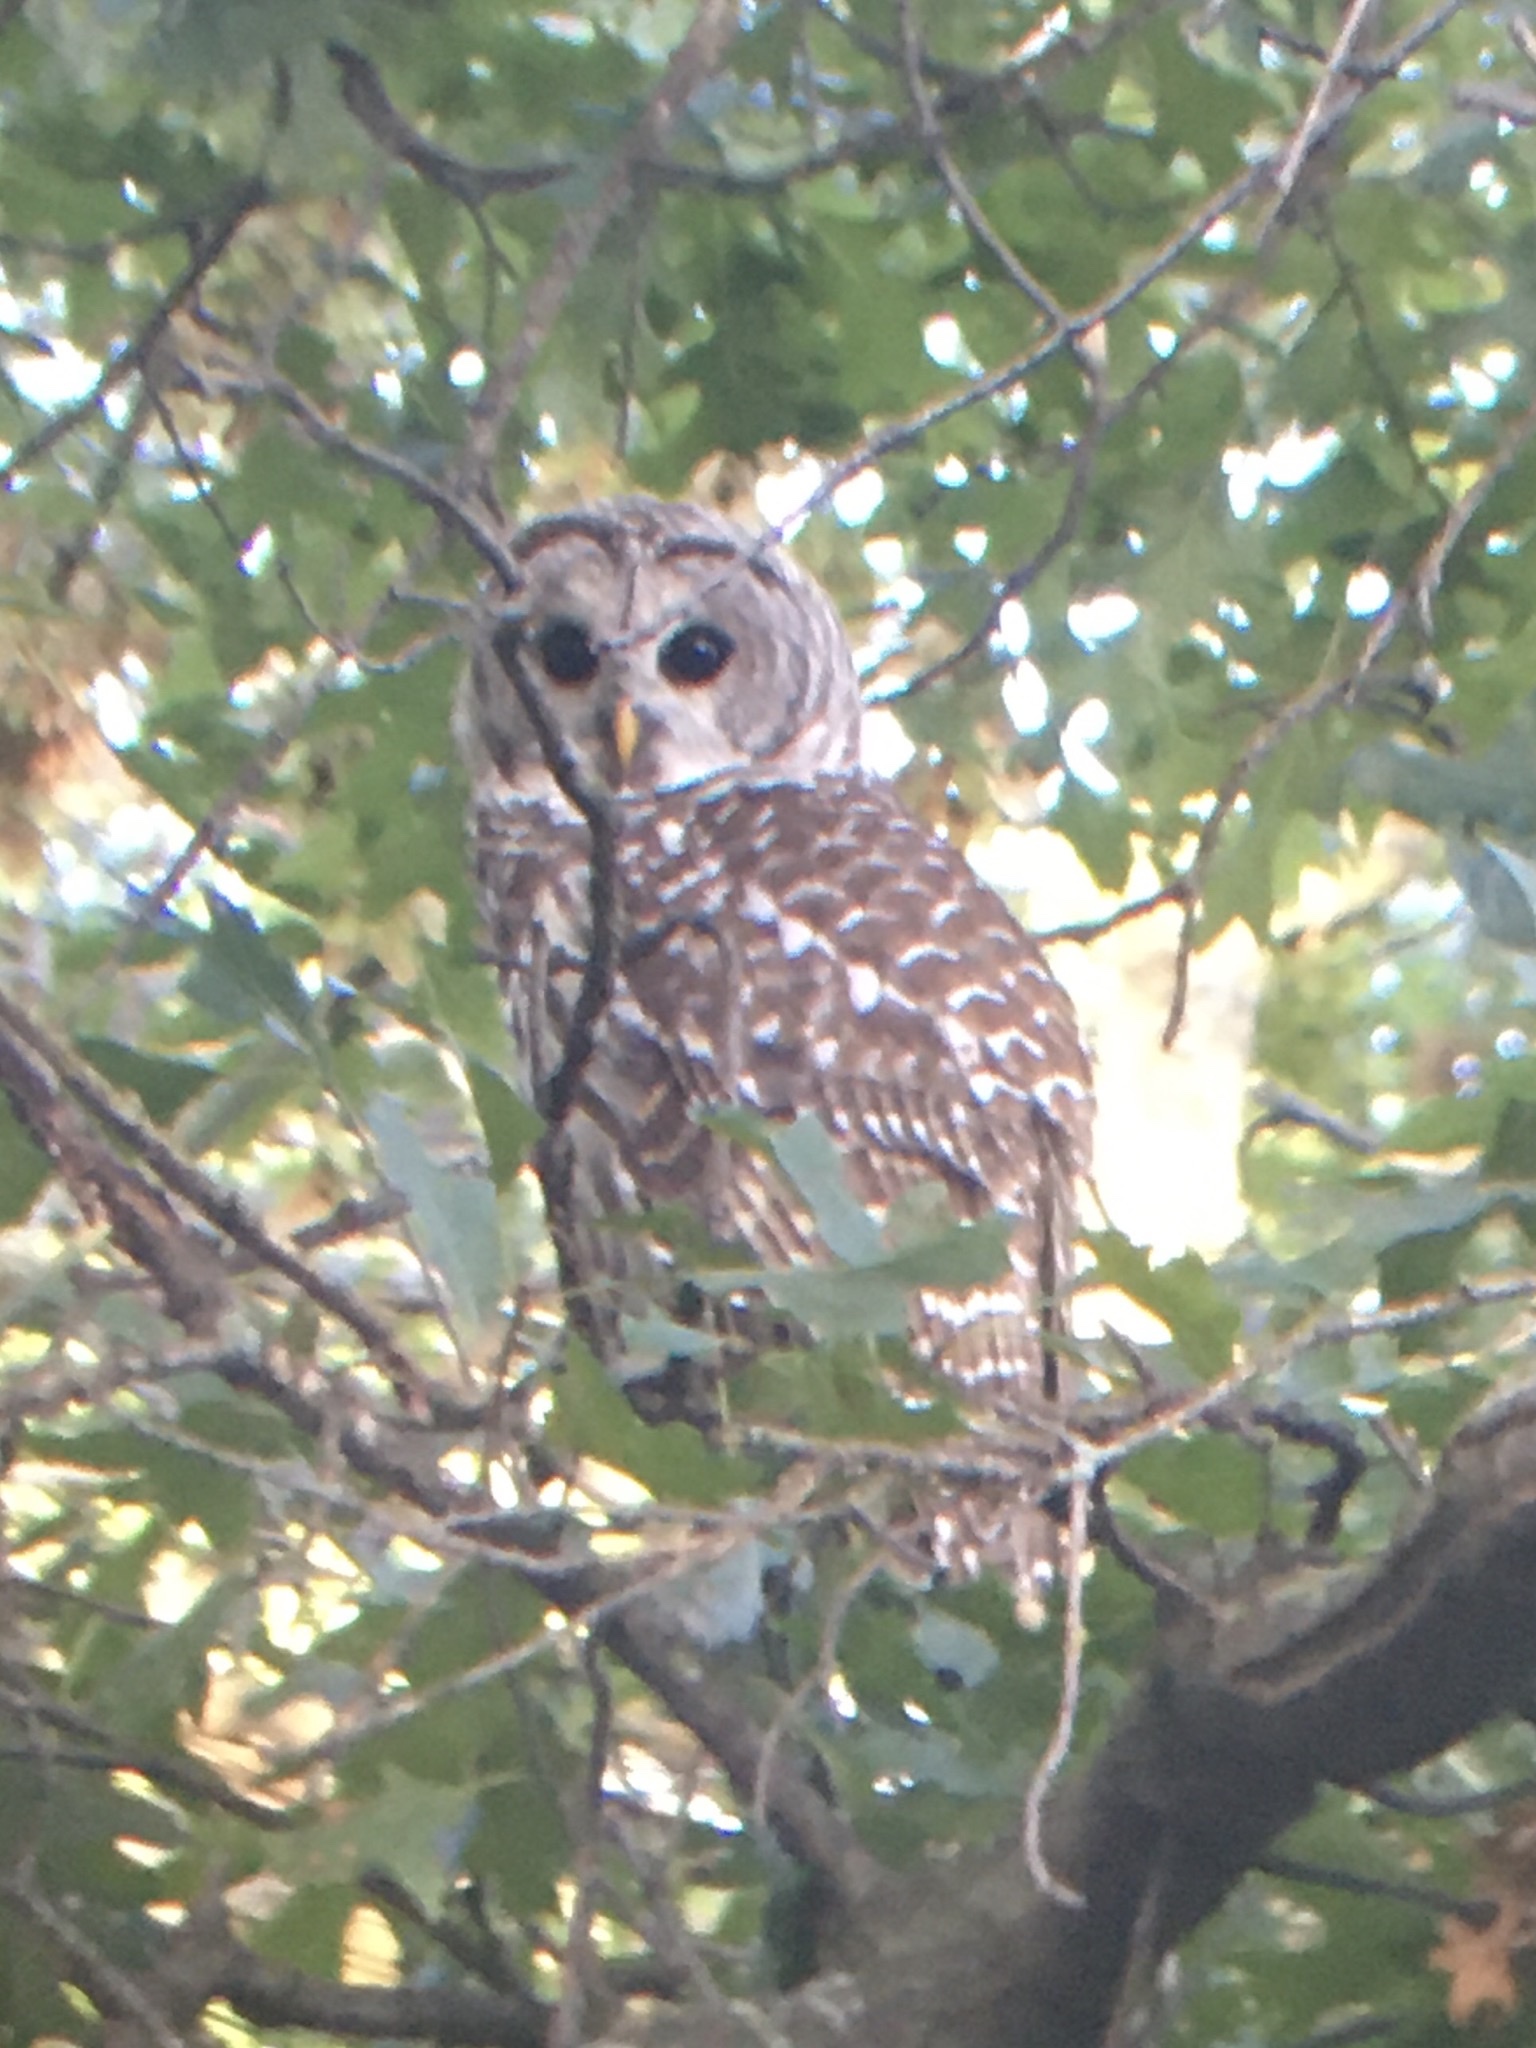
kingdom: Animalia
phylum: Chordata
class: Aves
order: Strigiformes
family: Strigidae
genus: Strix
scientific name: Strix varia
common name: Barred owl
